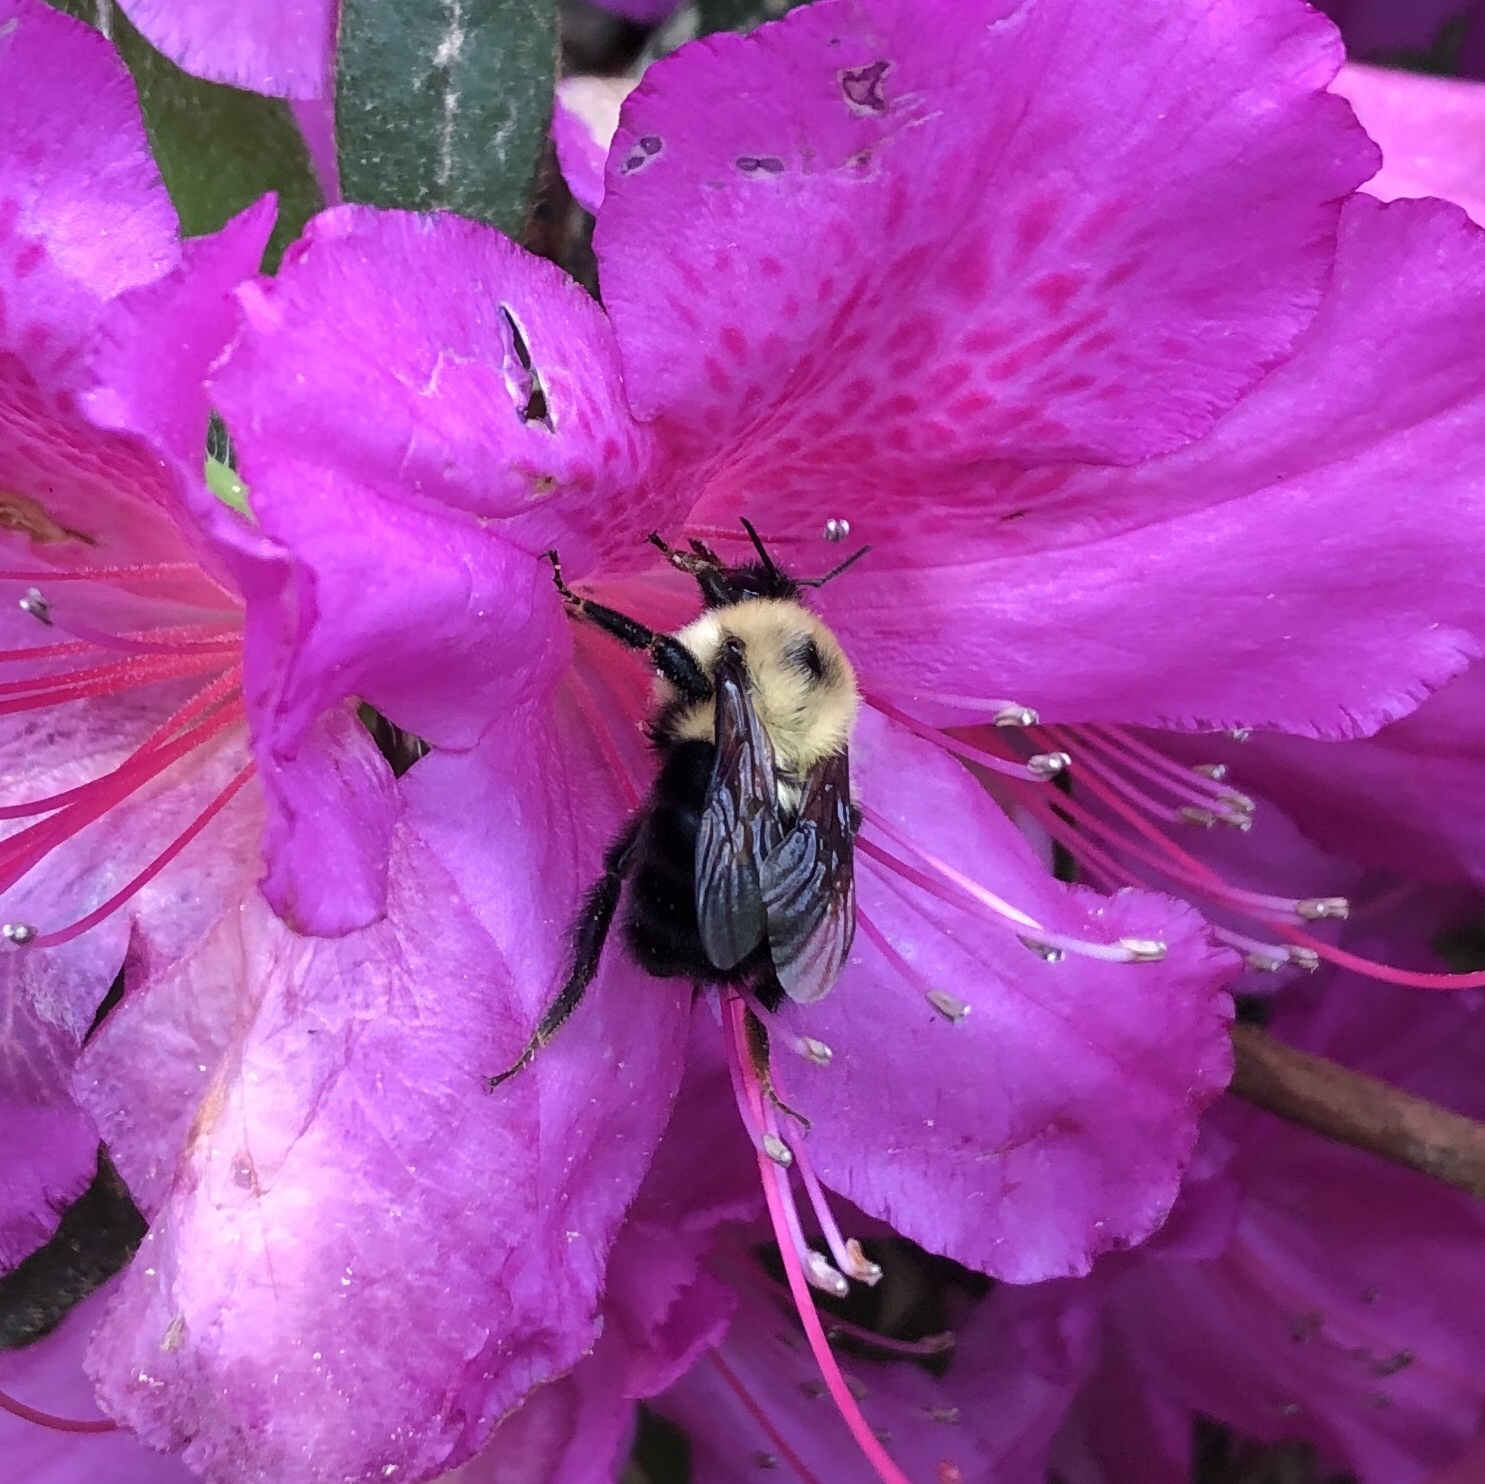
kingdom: Animalia
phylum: Arthropoda
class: Insecta
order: Hymenoptera
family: Apidae
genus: Bombus
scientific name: Bombus bimaculatus
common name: Two-spotted bumble bee
